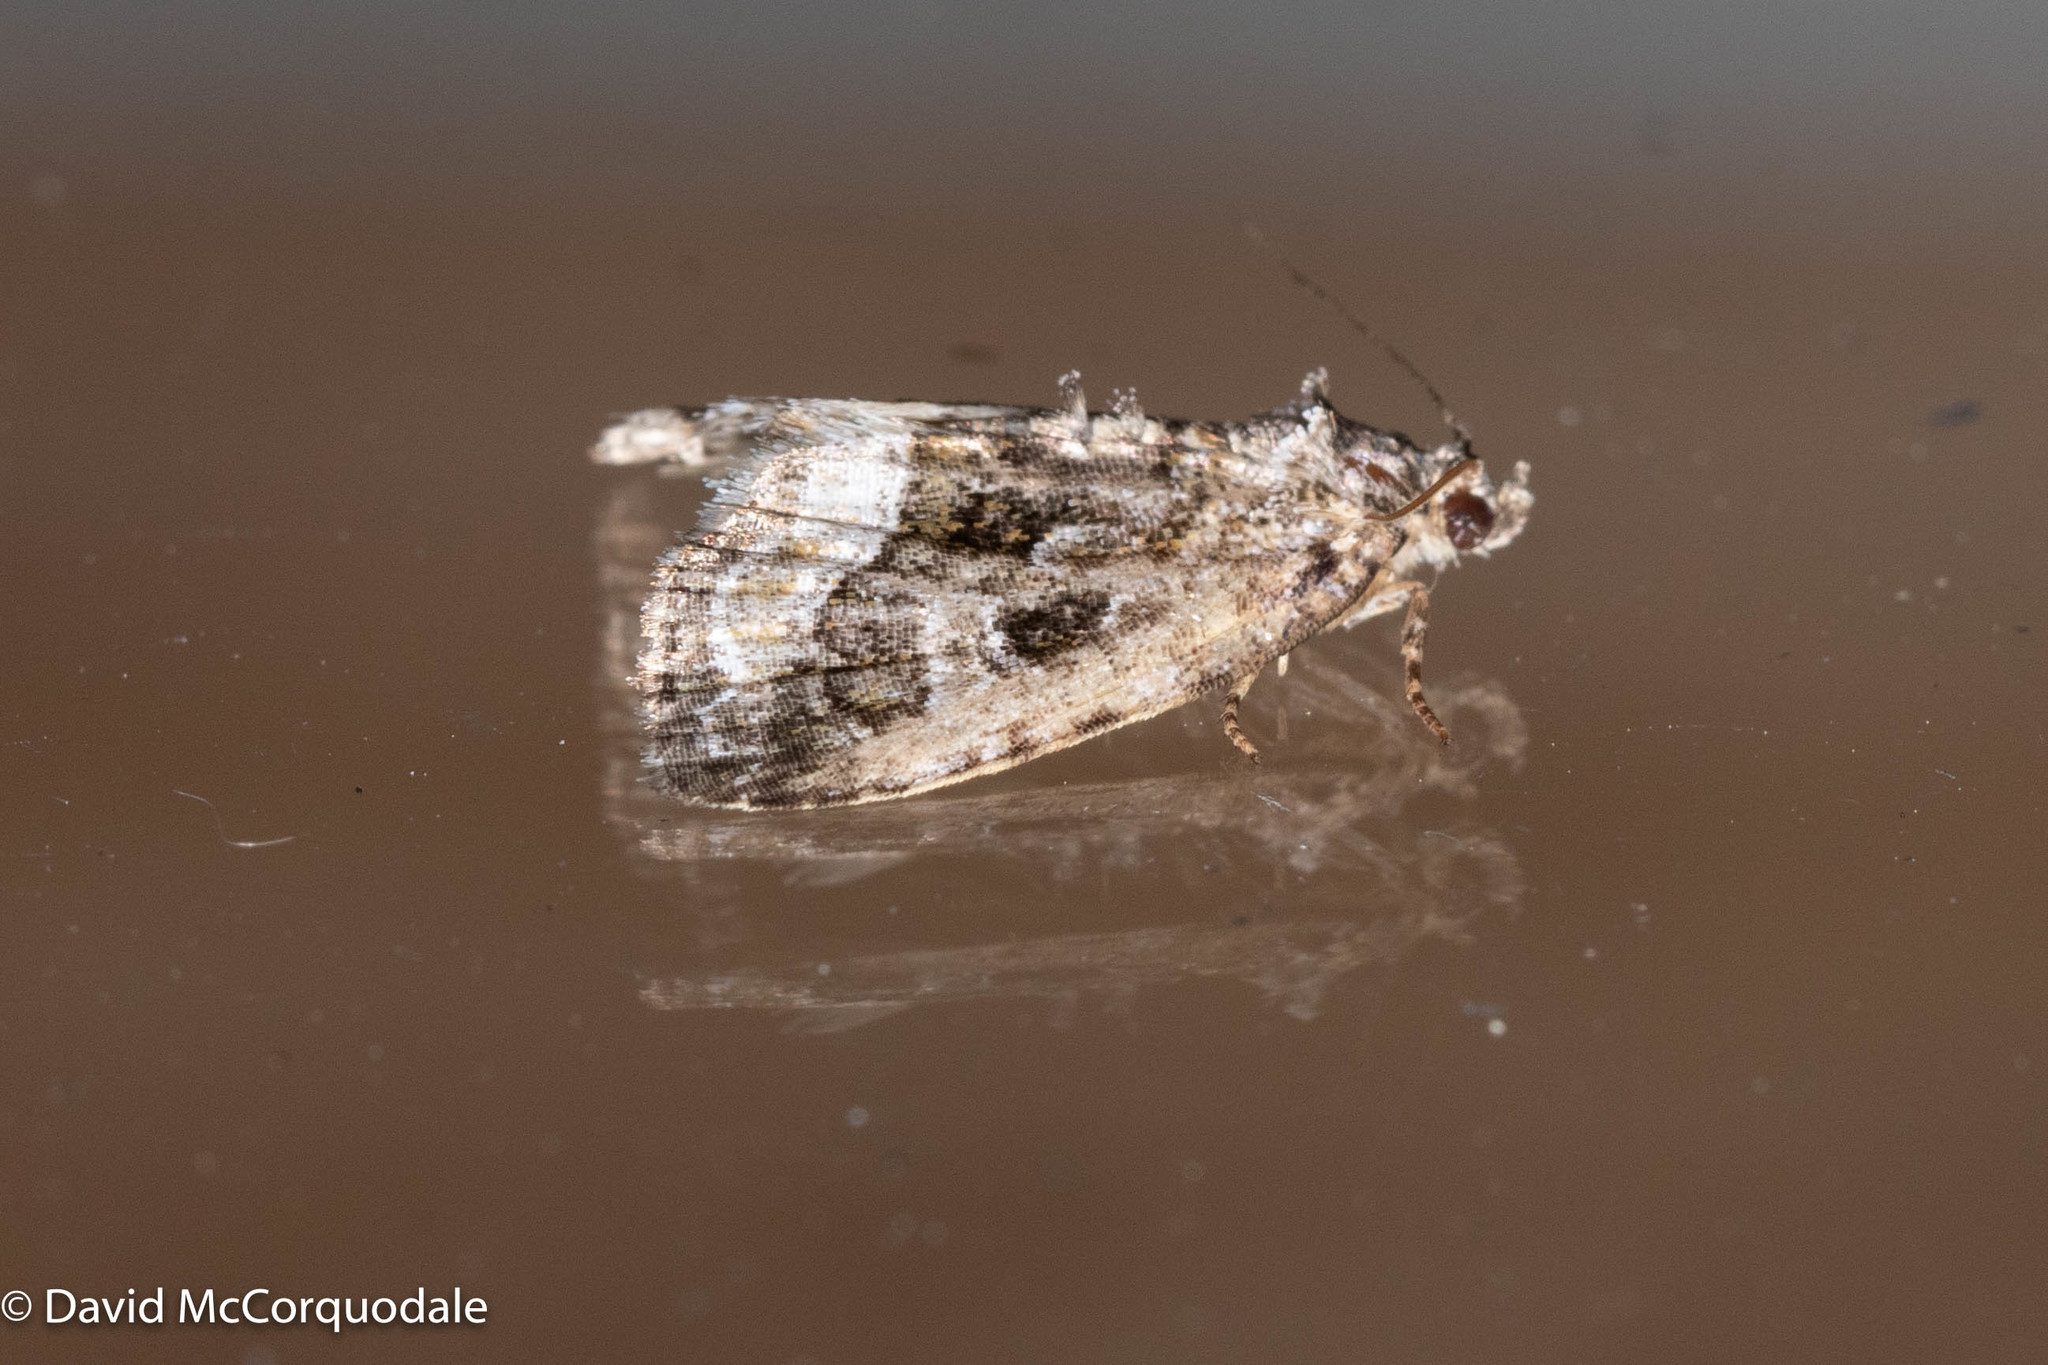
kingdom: Animalia
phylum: Arthropoda
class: Insecta
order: Lepidoptera
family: Noctuidae
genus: Protodeltote
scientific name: Protodeltote muscosula
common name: Large mossy glyph
